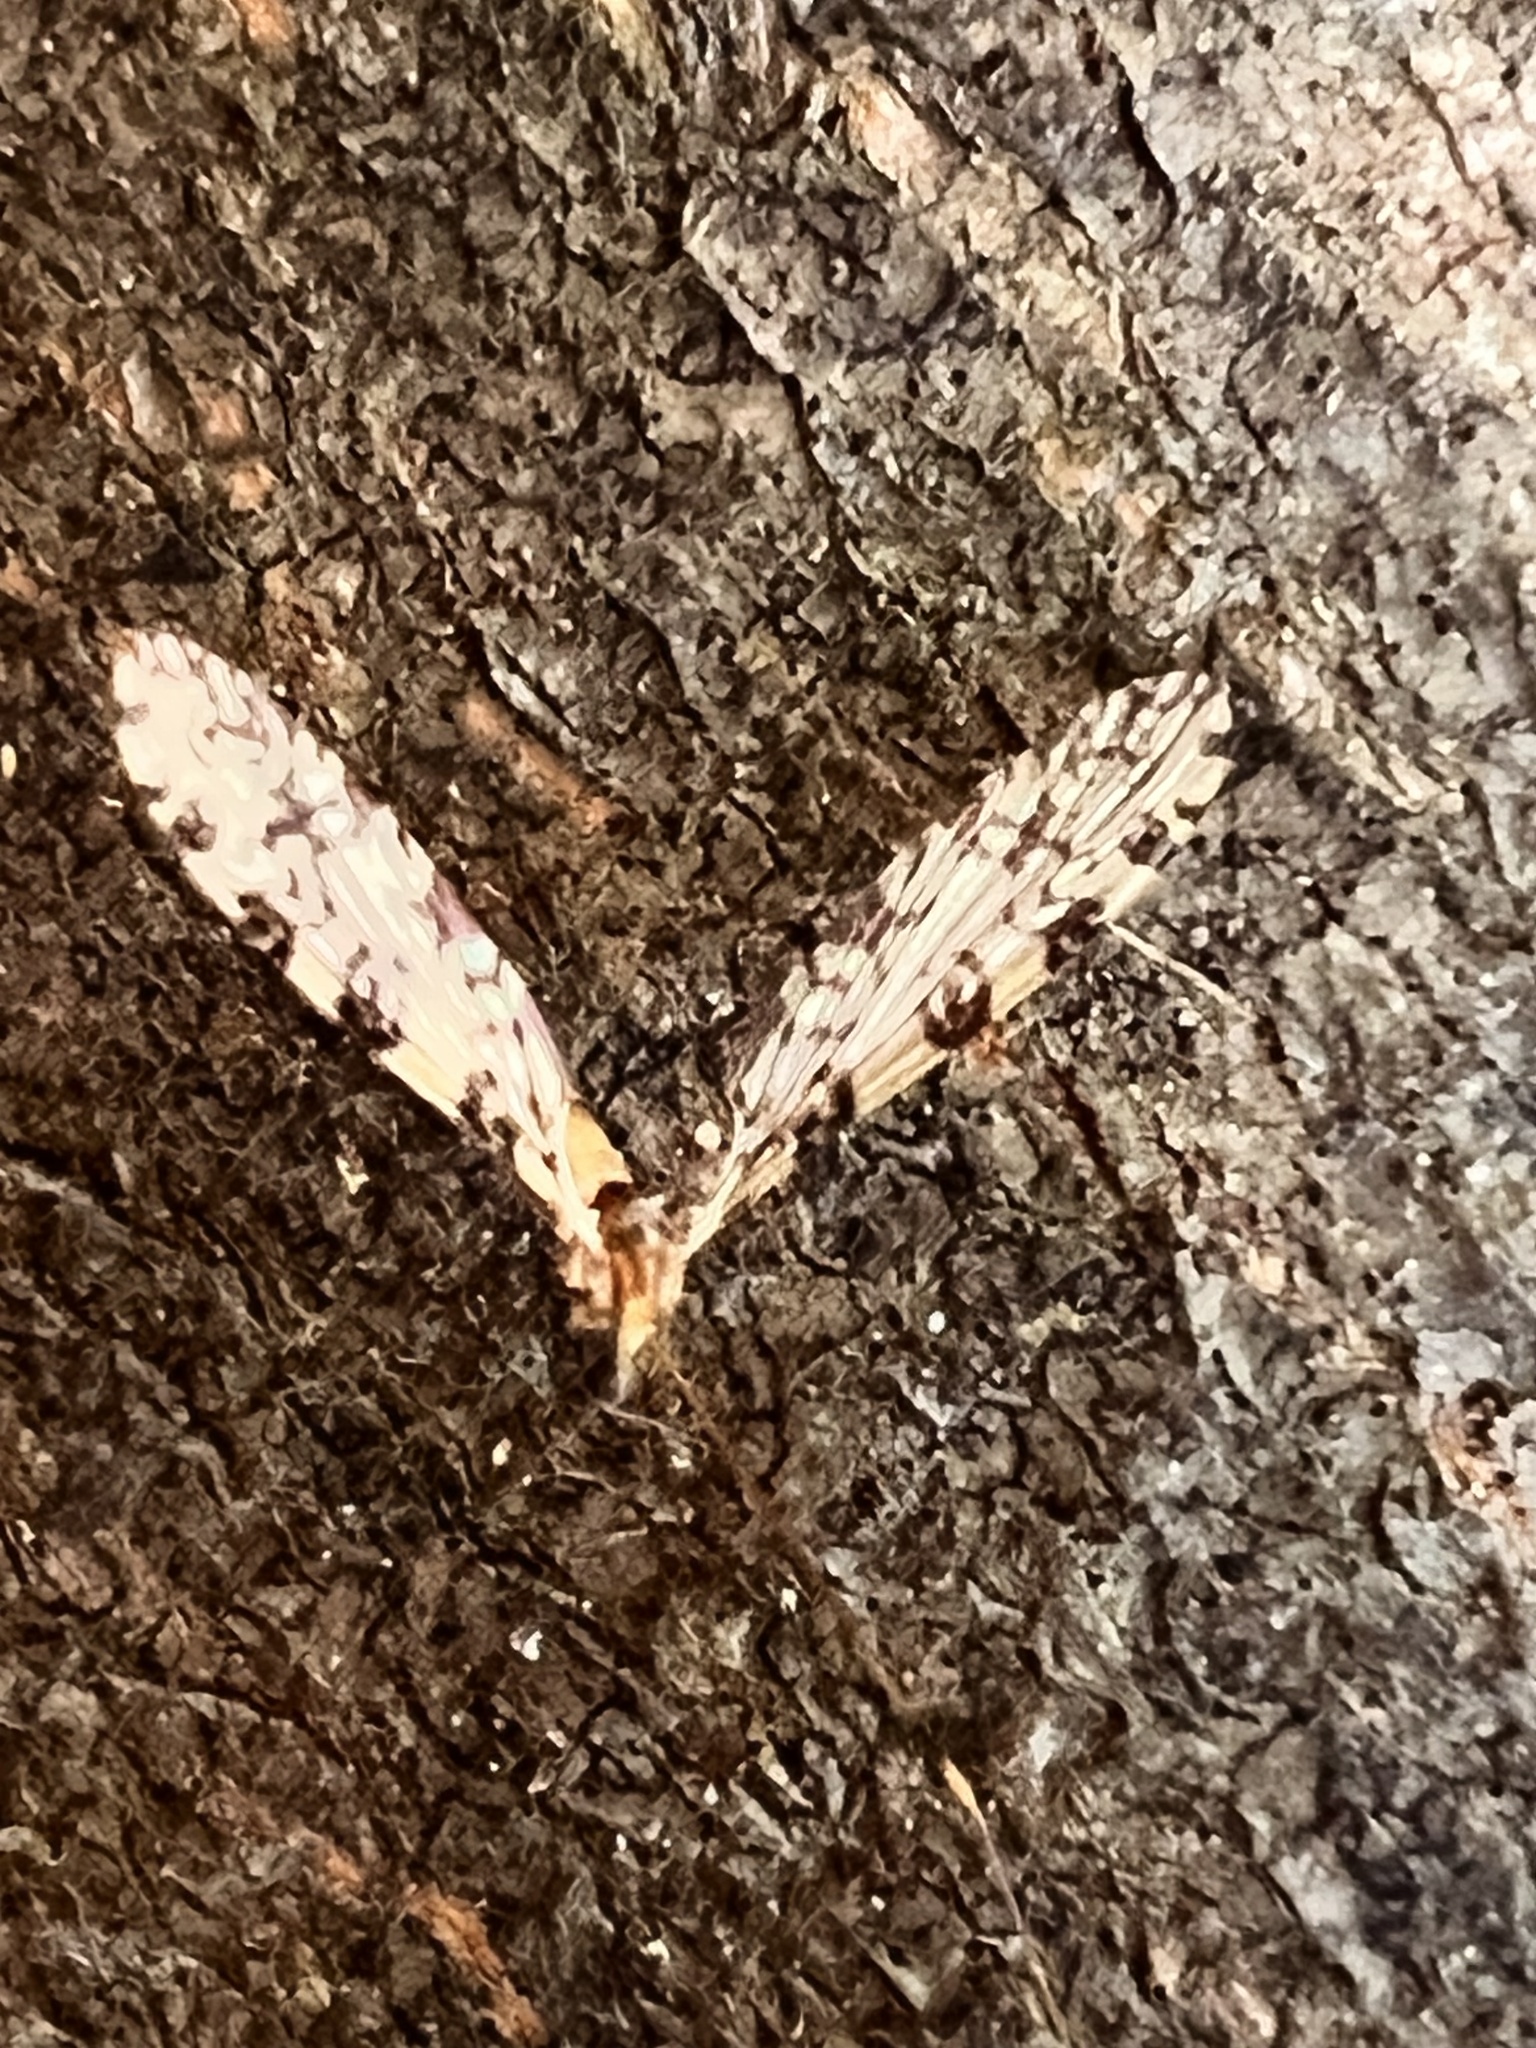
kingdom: Animalia
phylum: Arthropoda
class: Insecta
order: Diptera
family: Limoniidae
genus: Limonia
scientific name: Limonia annulata
